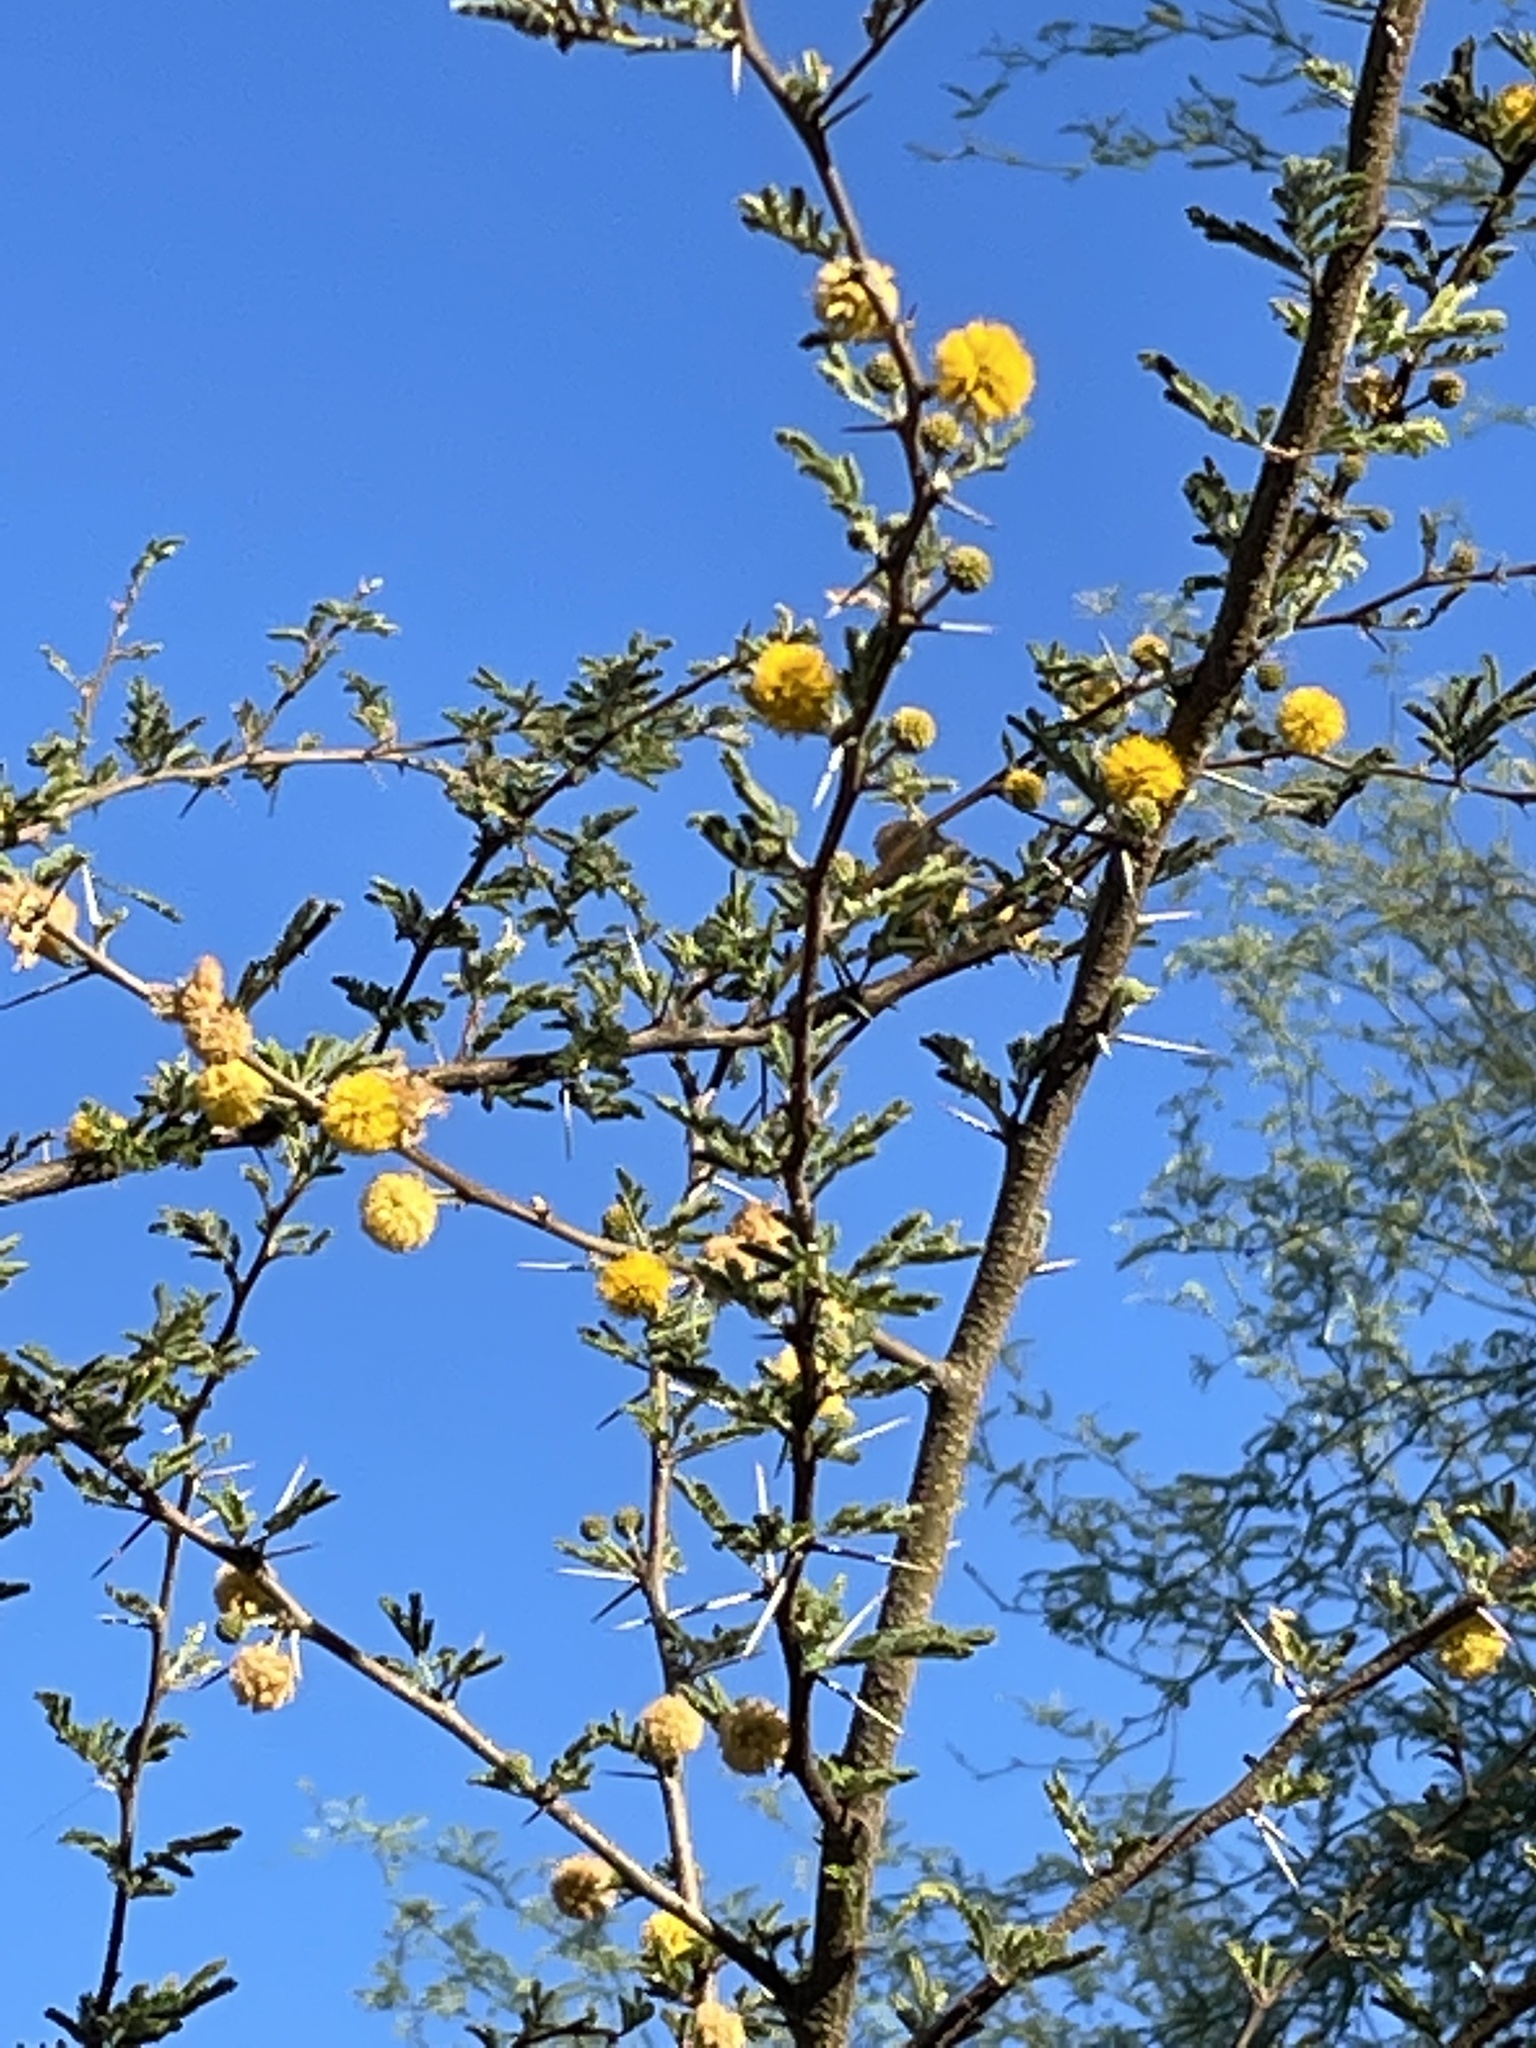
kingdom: Plantae
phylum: Tracheophyta
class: Magnoliopsida
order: Fabales
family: Fabaceae
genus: Vachellia
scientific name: Vachellia farnesiana
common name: Sweet acacia
